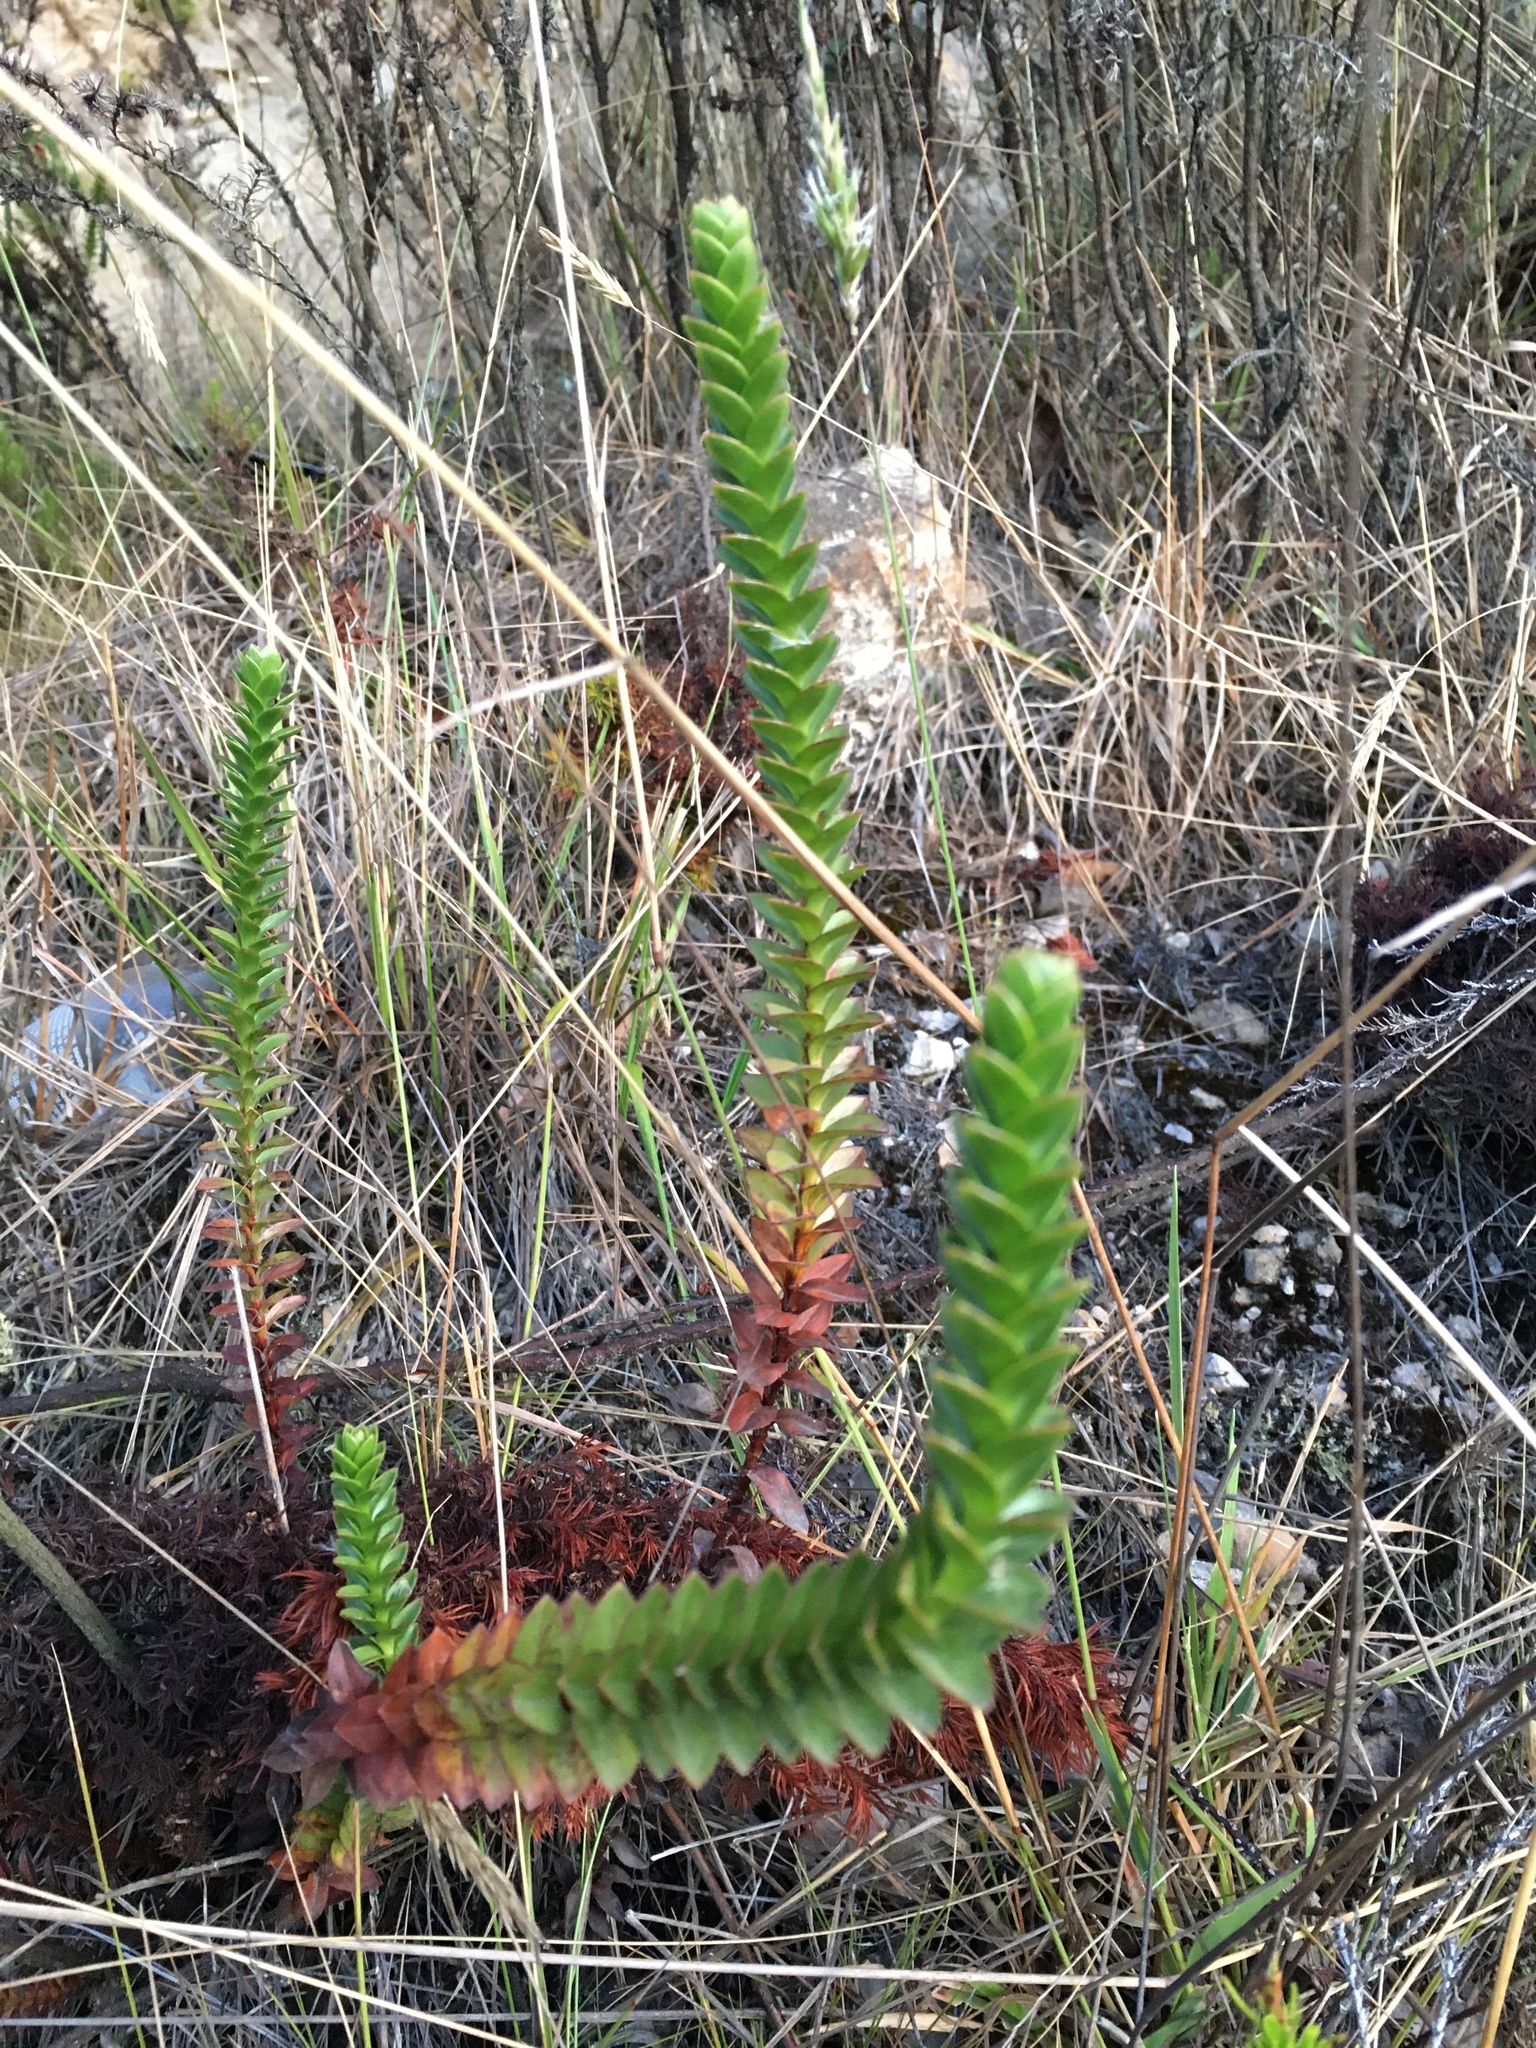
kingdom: Plantae
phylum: Tracheophyta
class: Magnoliopsida
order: Malpighiales
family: Hypericaceae
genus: Hypericum
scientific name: Hypericum mexicanum
